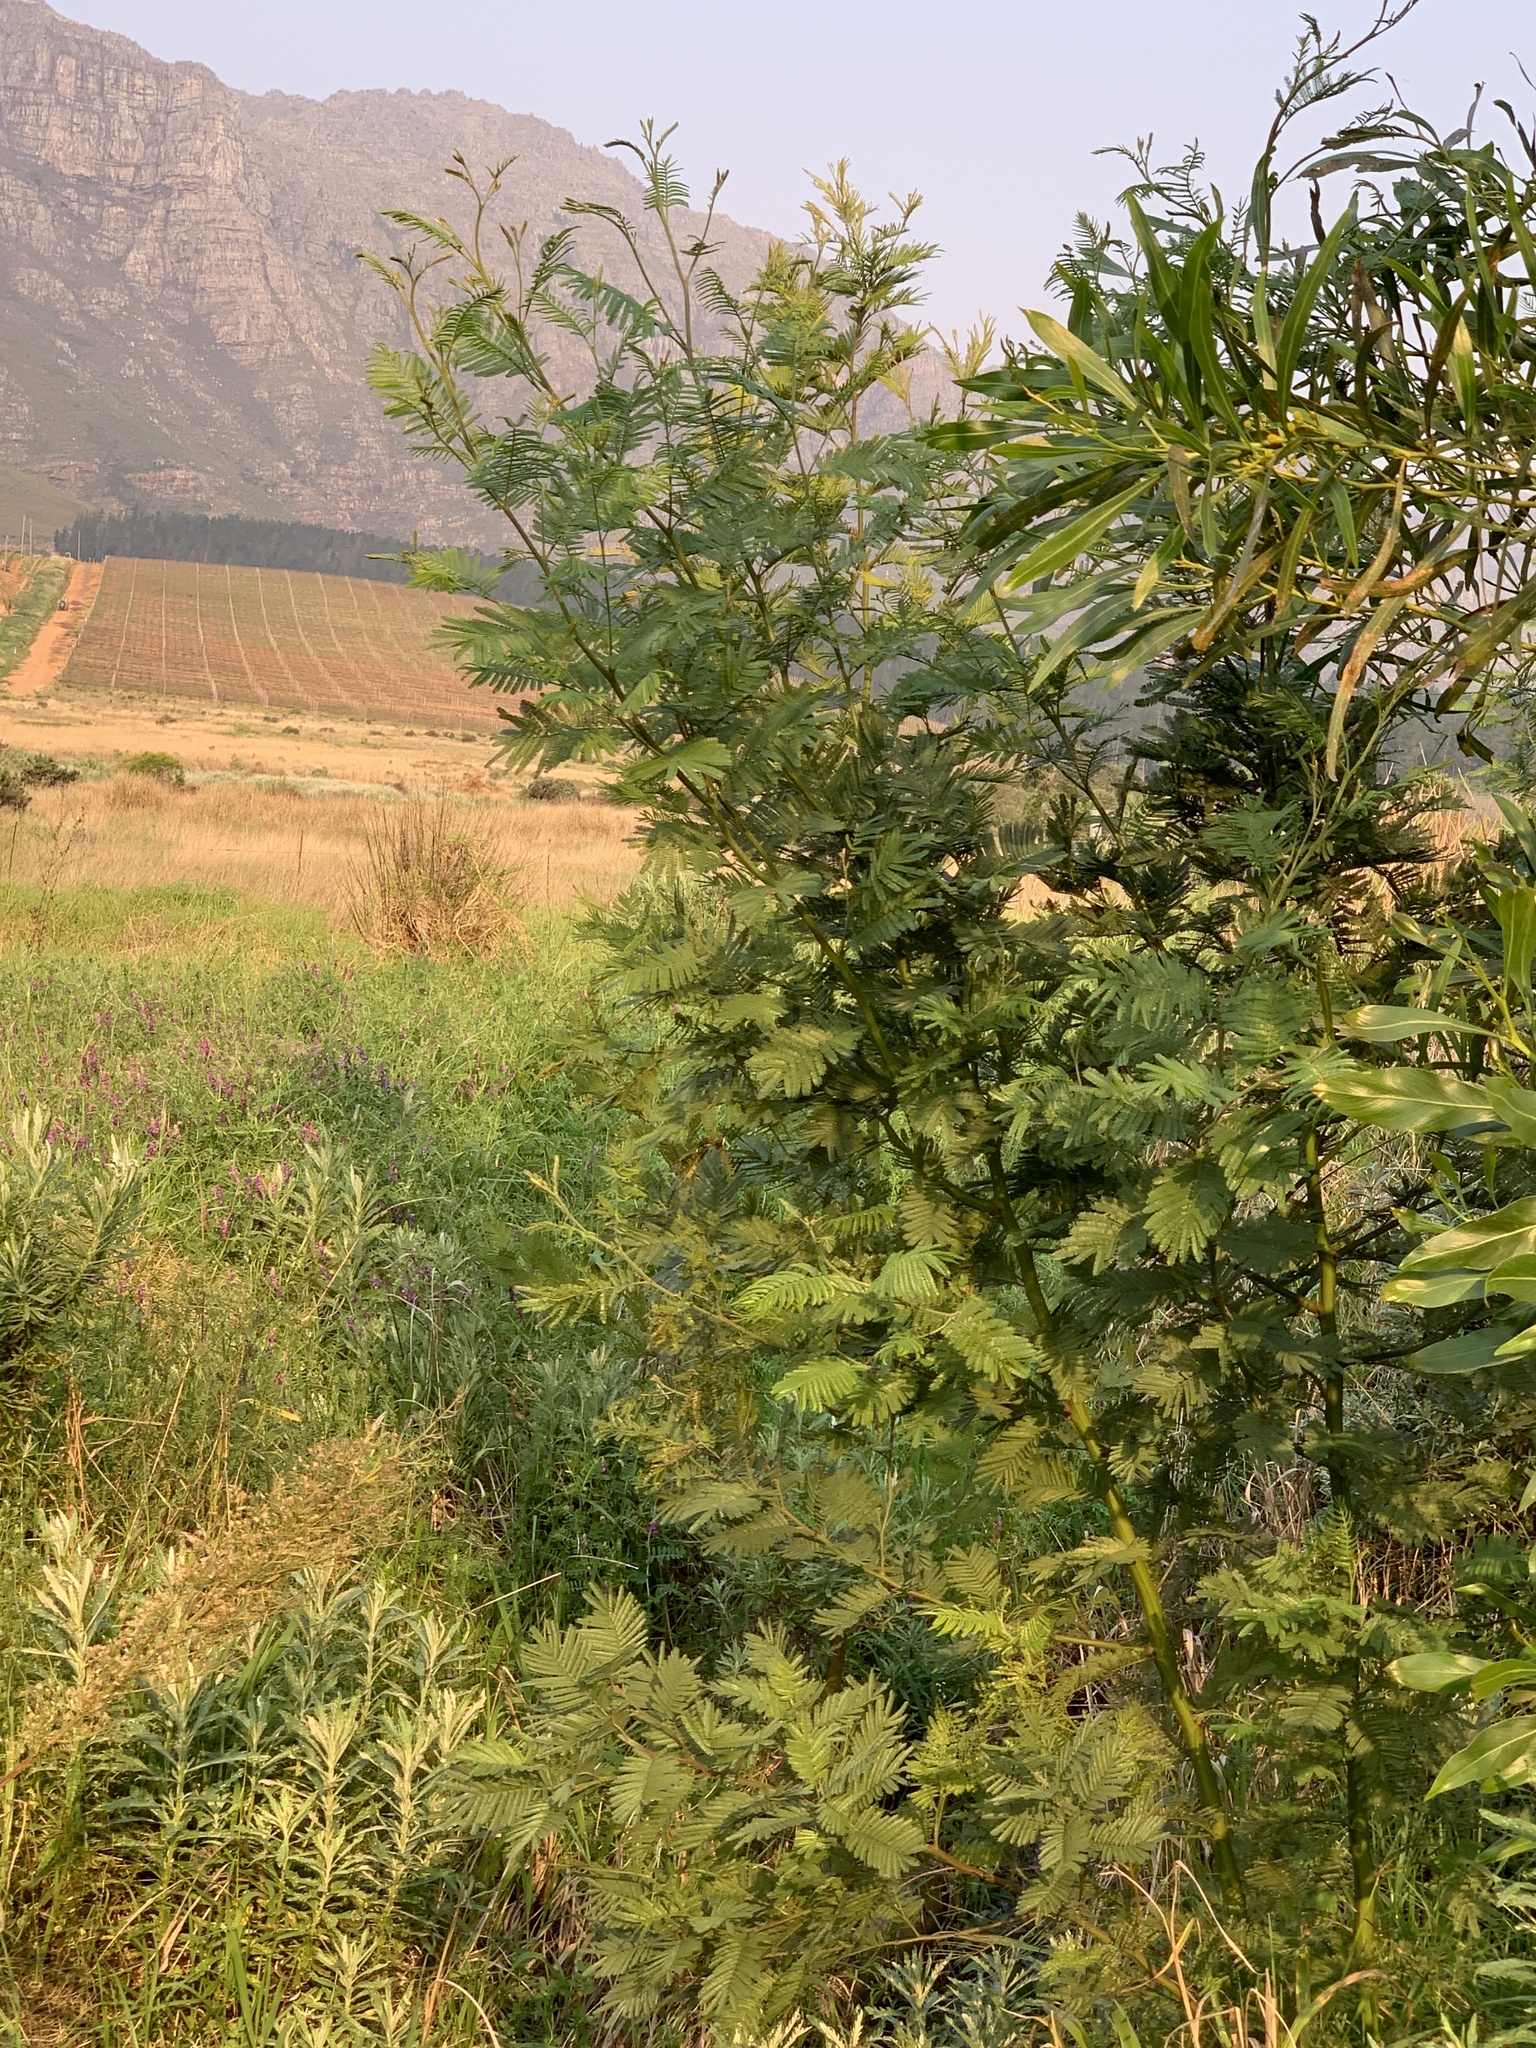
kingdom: Plantae
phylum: Tracheophyta
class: Magnoliopsida
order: Fabales
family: Fabaceae
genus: Acacia
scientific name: Acacia mearnsii
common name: Black wattle
